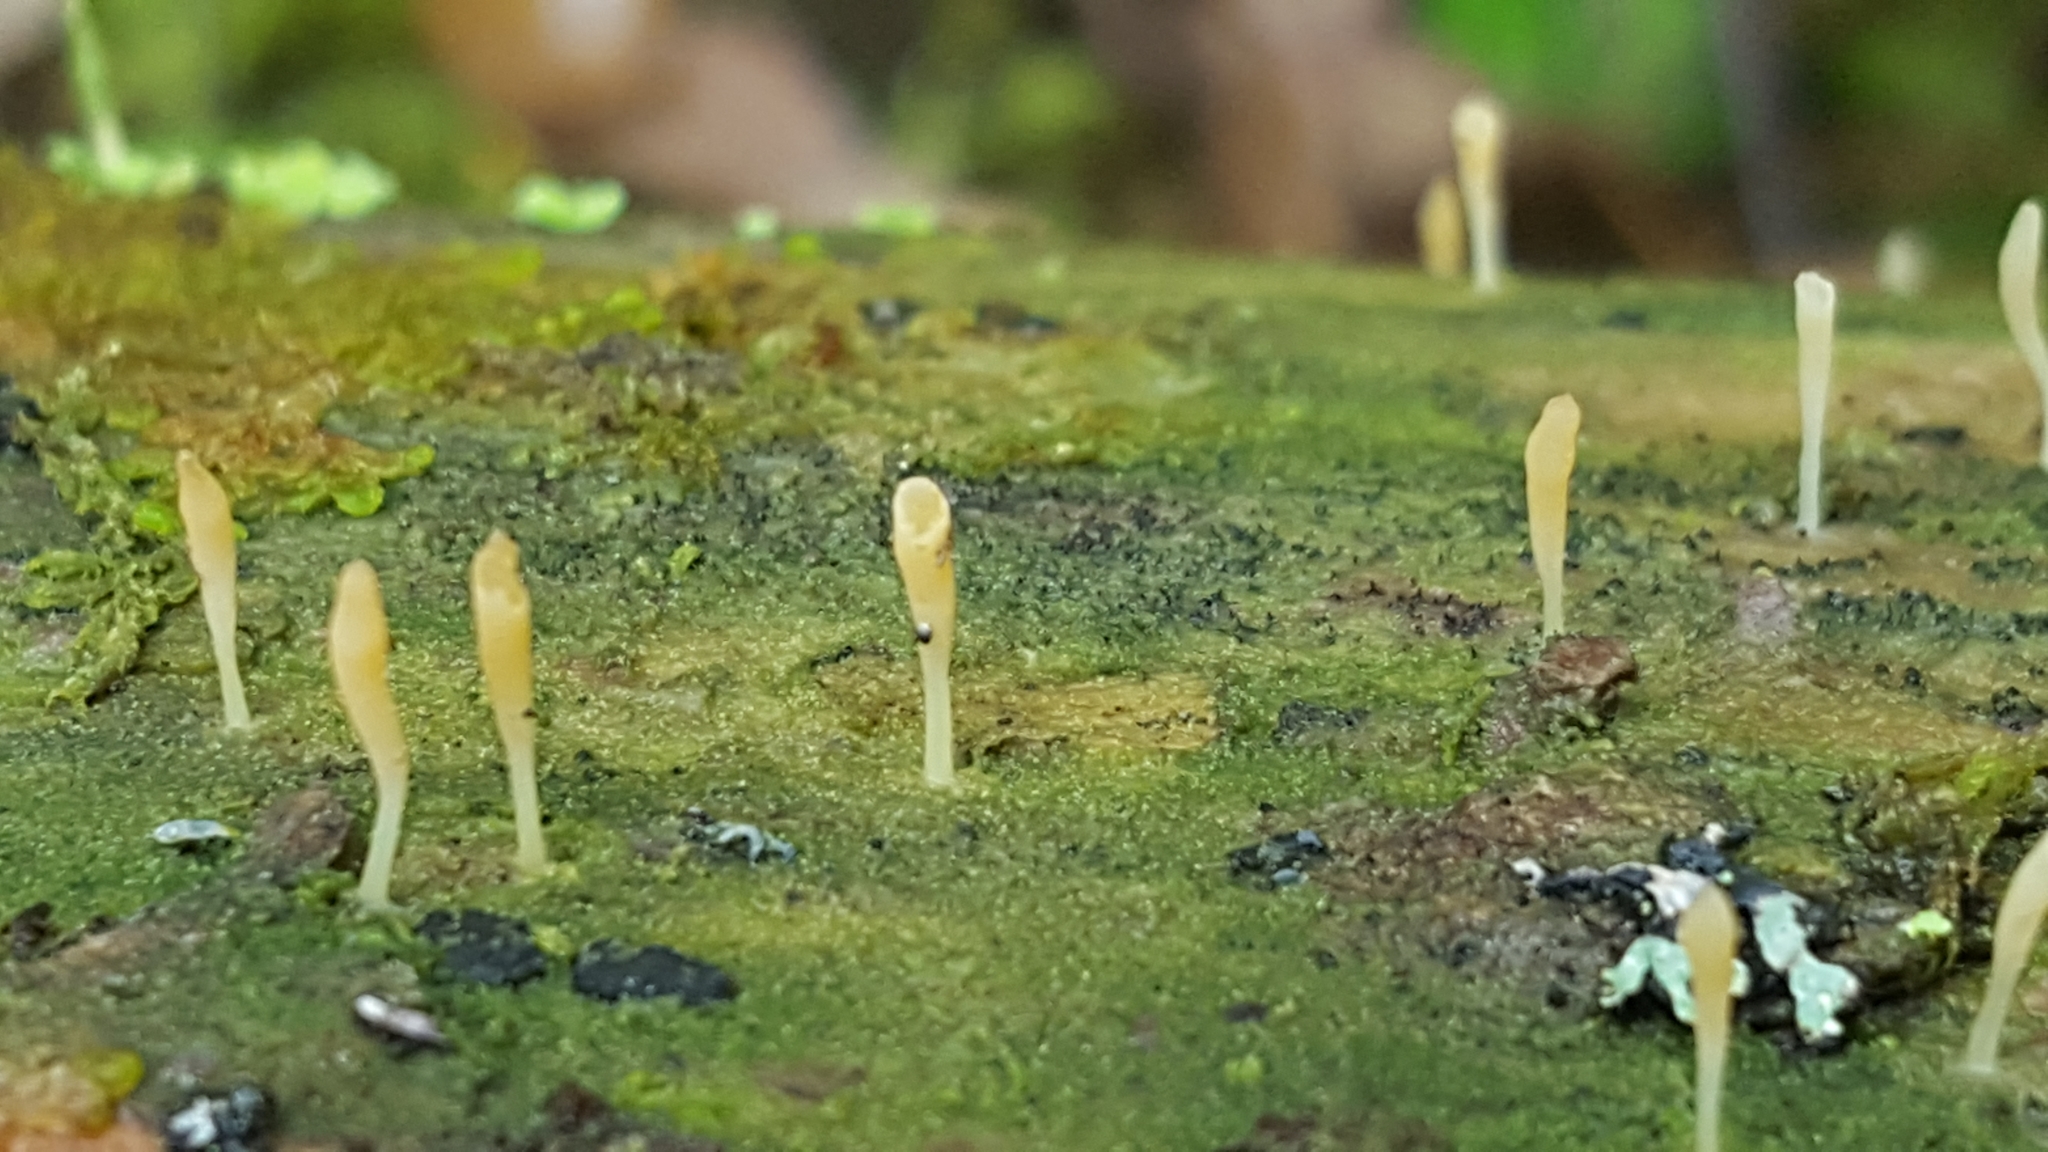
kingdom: Fungi
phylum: Basidiomycota
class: Agaricomycetes
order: Cantharellales
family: Hydnaceae
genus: Multiclavula
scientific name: Multiclavula mucida
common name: White green-algae coral
